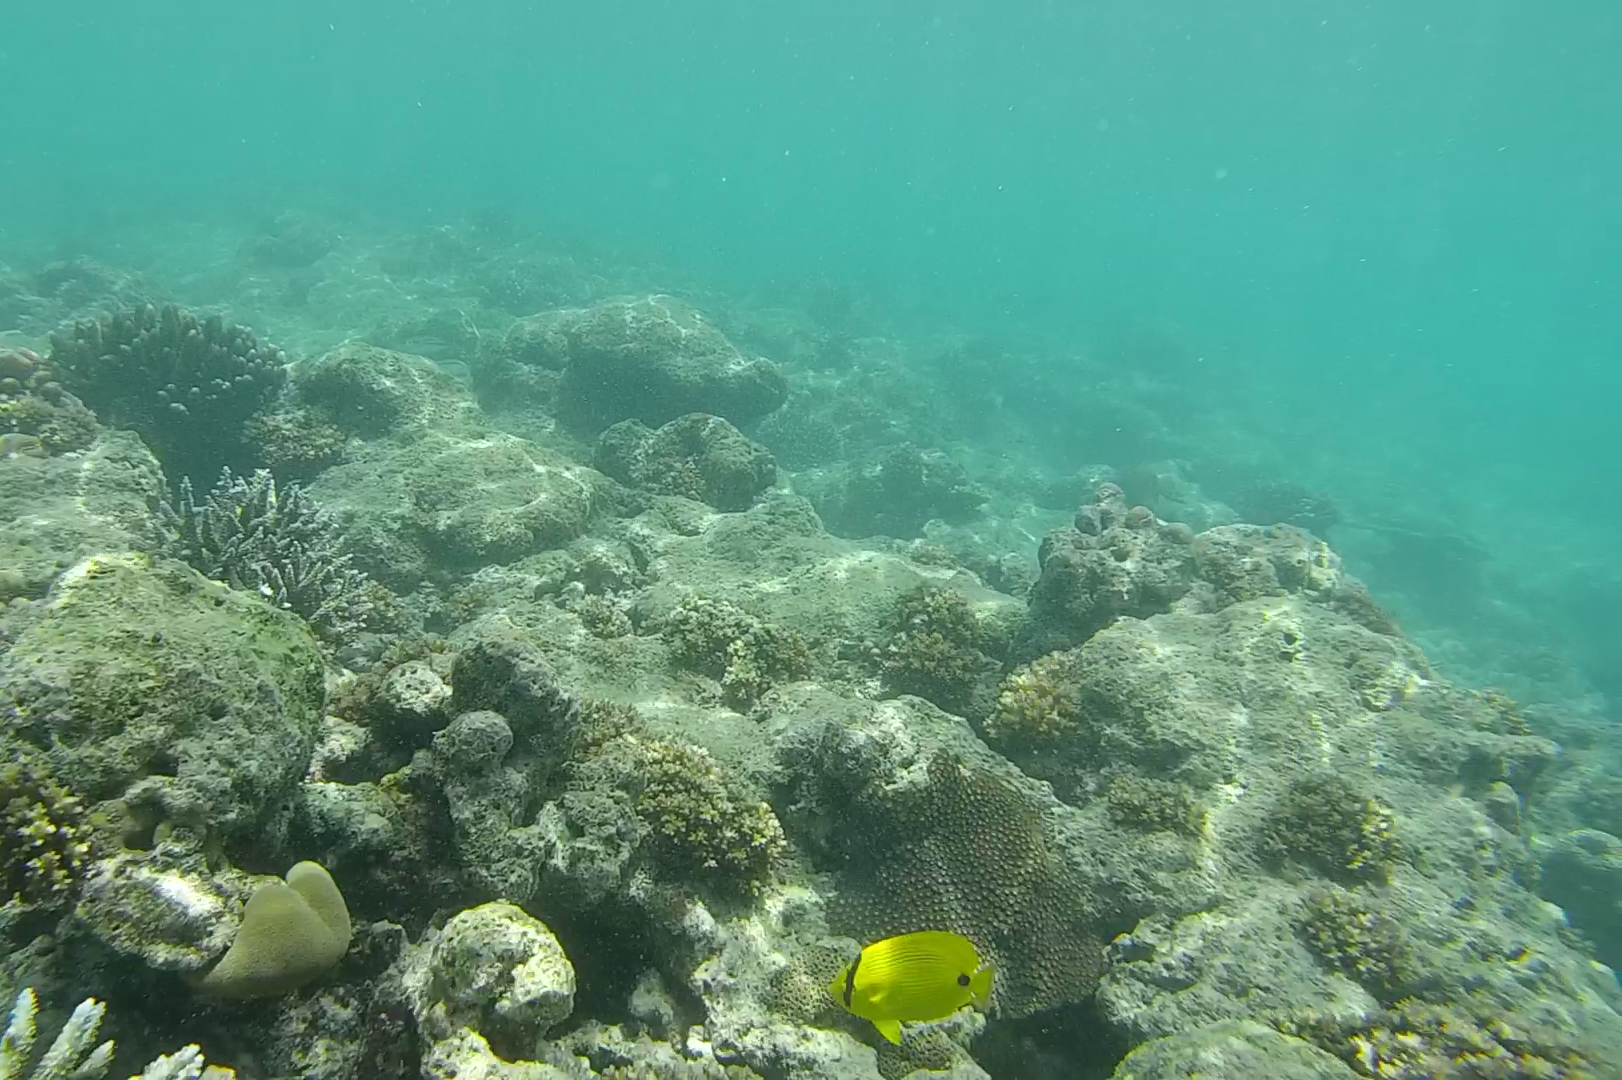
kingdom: Animalia
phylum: Chordata
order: Perciformes
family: Chaetodontidae
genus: Chaetodon
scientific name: Chaetodon andamanensis
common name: Yellow butterflyfish
